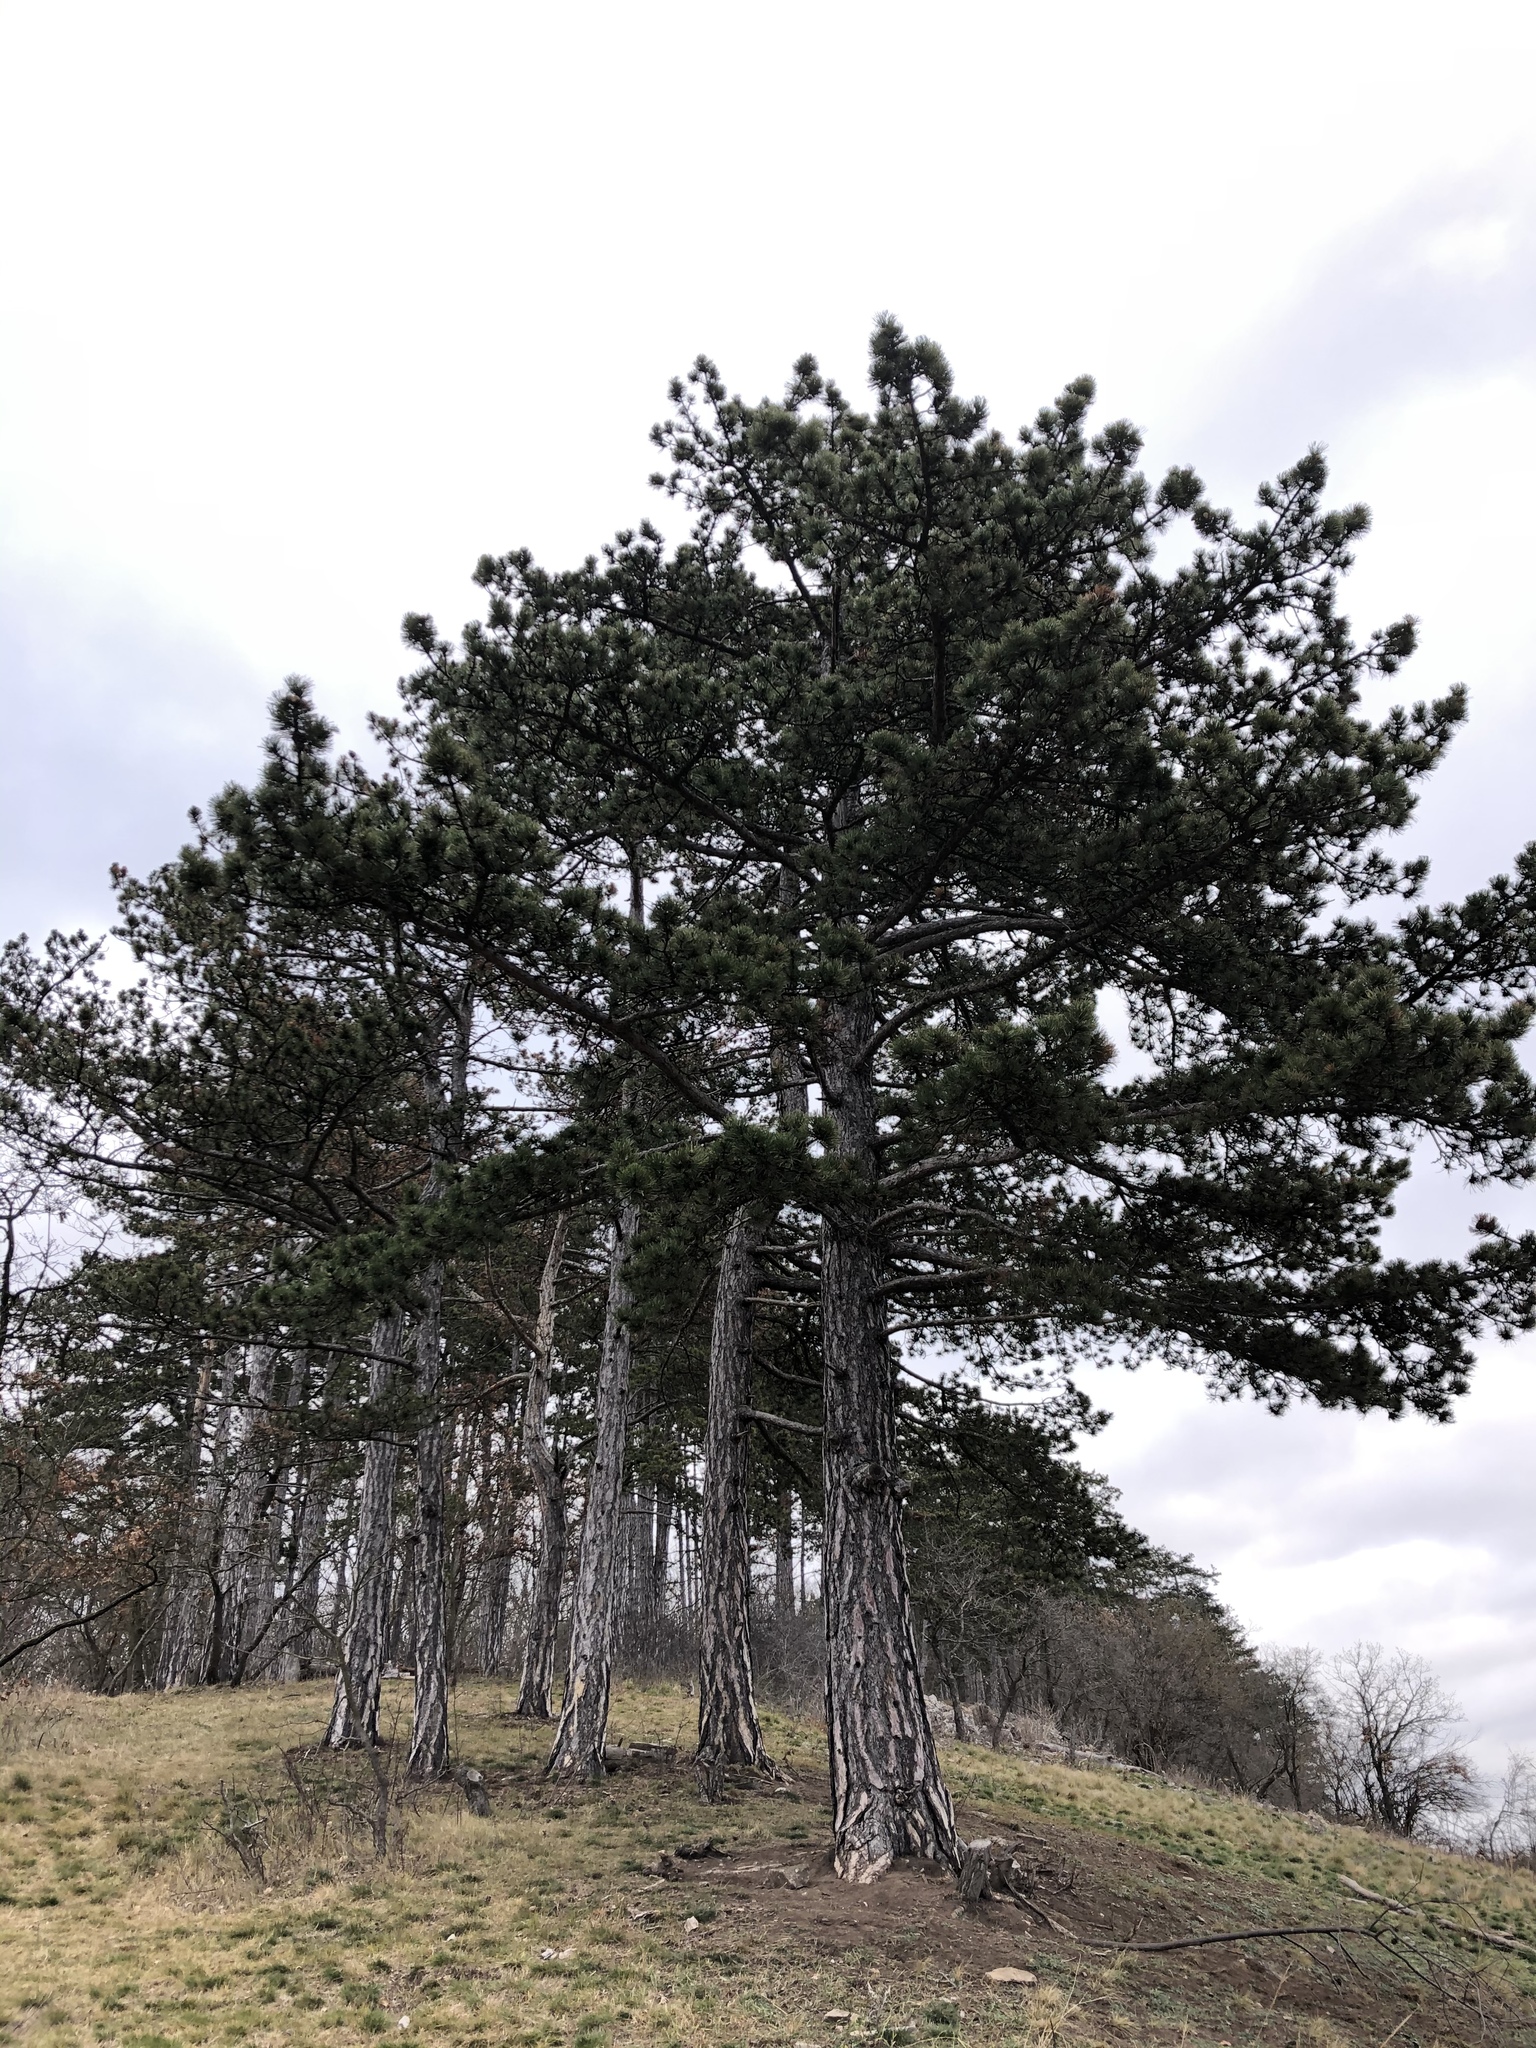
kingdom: Plantae
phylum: Tracheophyta
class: Pinopsida
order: Pinales
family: Pinaceae
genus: Pinus
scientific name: Pinus nigra
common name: Austrian pine
